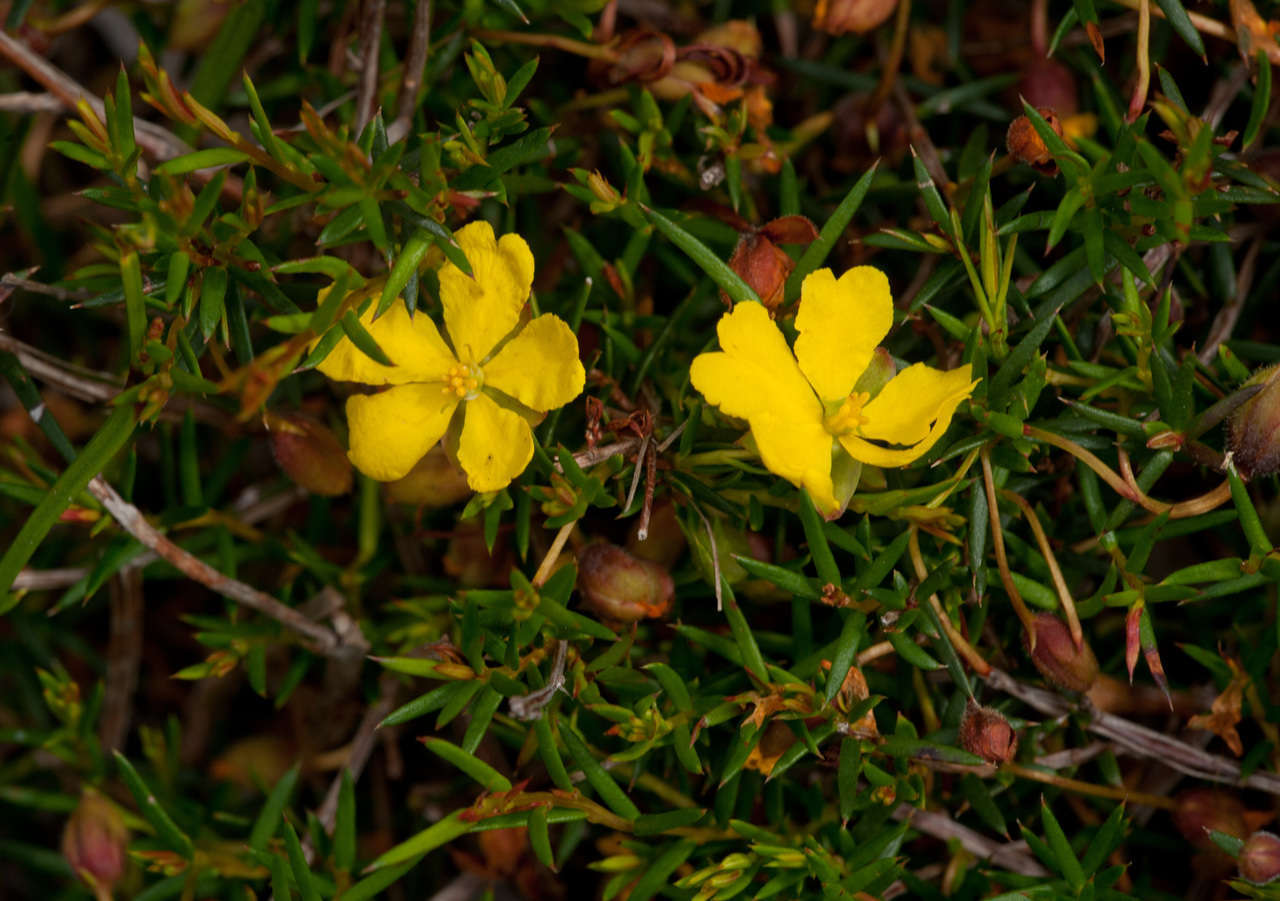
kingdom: Plantae
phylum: Tracheophyta
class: Magnoliopsida
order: Dilleniales
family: Dilleniaceae
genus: Hibbertia
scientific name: Hibbertia acicularis
